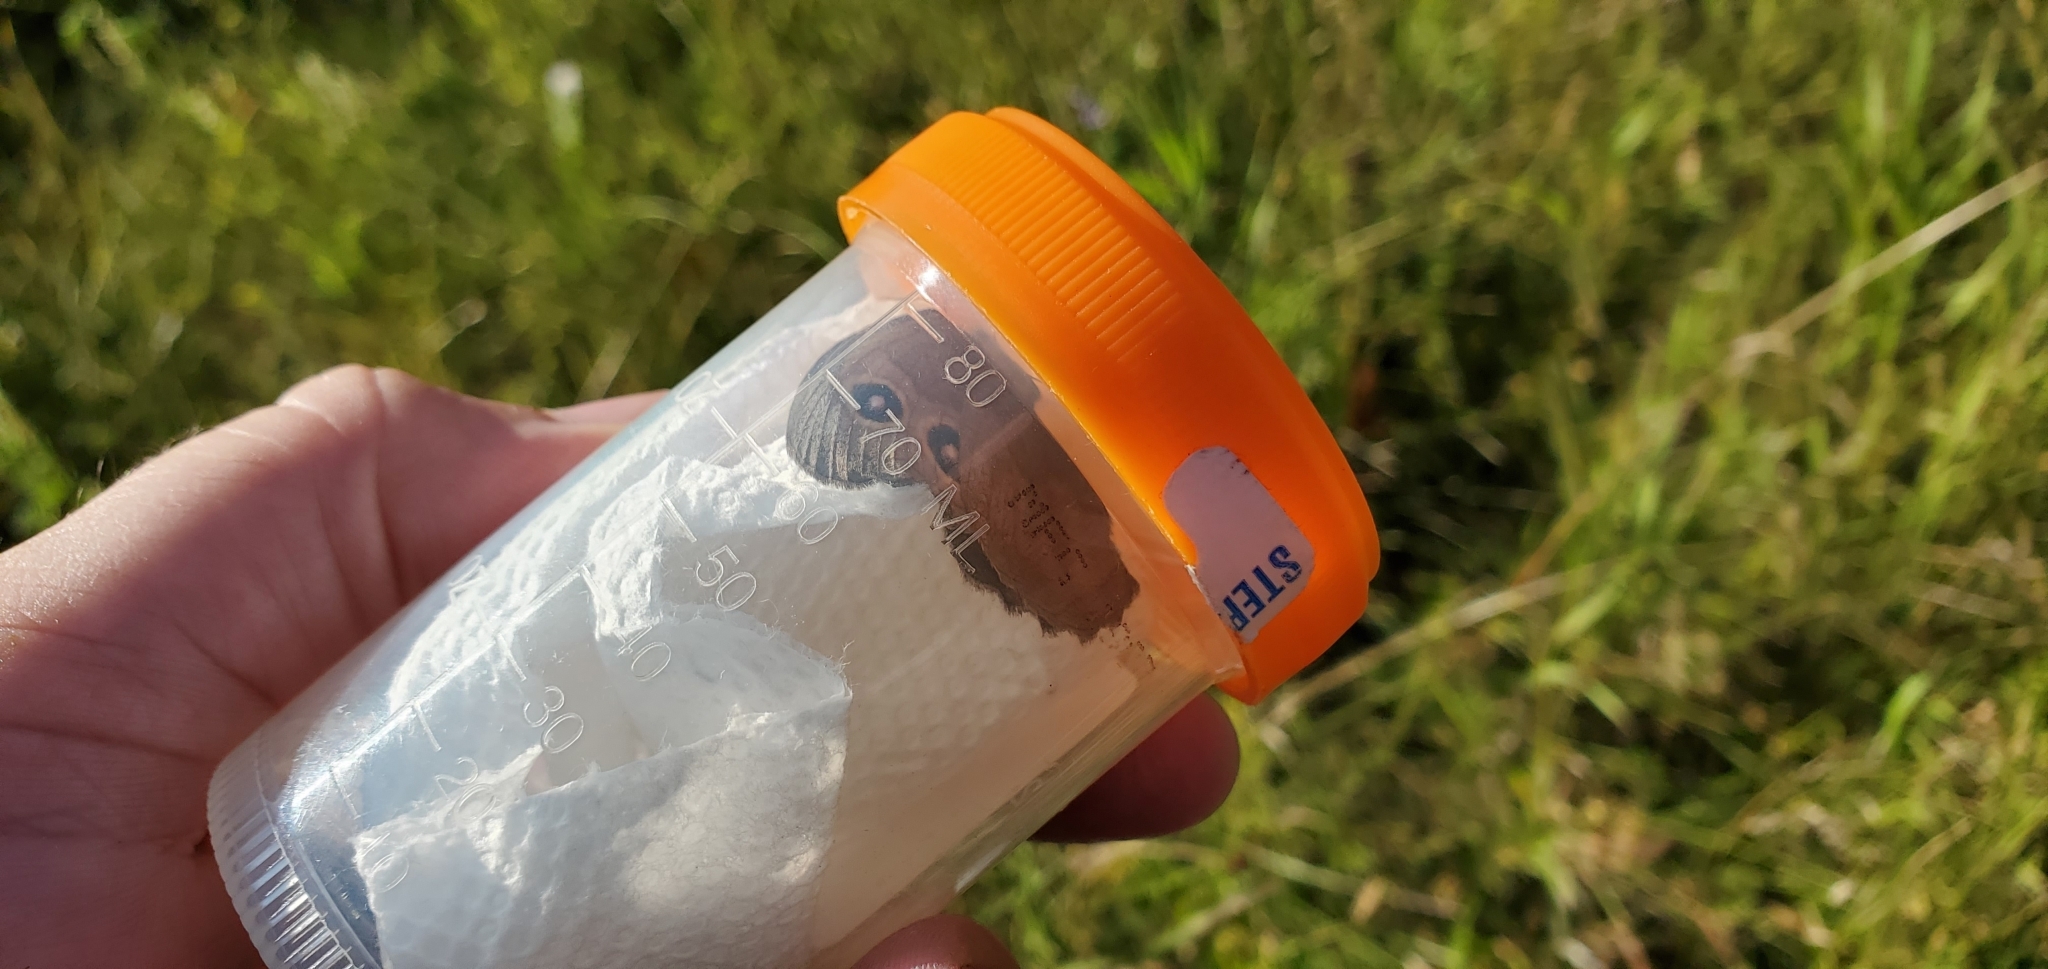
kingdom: Animalia
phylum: Arthropoda
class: Insecta
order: Lepidoptera
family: Nymphalidae
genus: Cercyonis
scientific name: Cercyonis pegala
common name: Common wood-nymph
